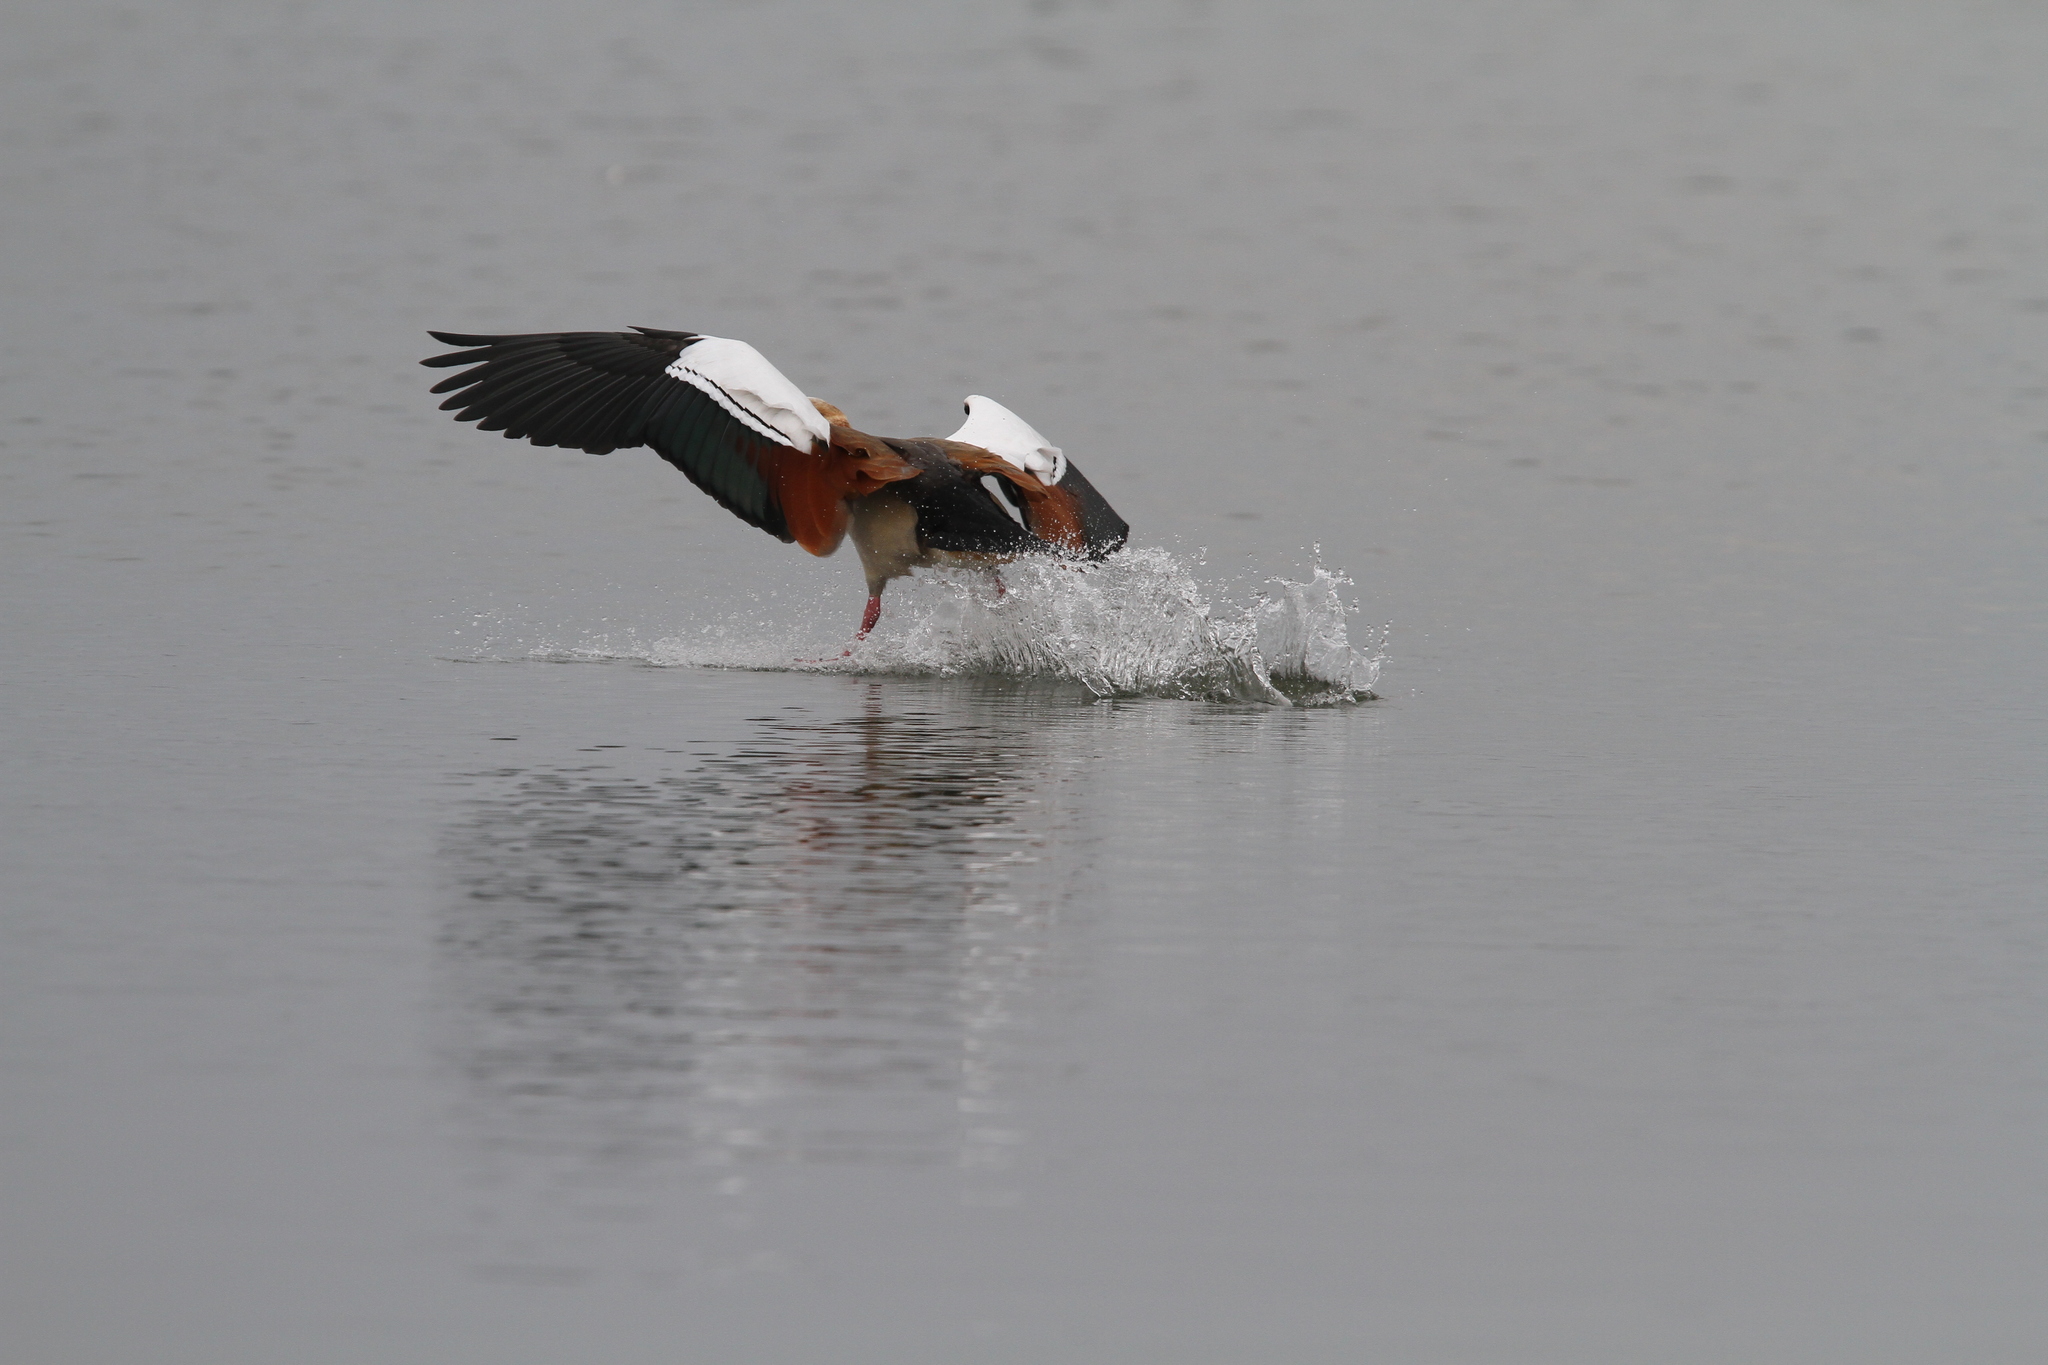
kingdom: Animalia
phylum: Chordata
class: Aves
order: Anseriformes
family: Anatidae
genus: Alopochen
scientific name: Alopochen aegyptiaca
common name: Egyptian goose
